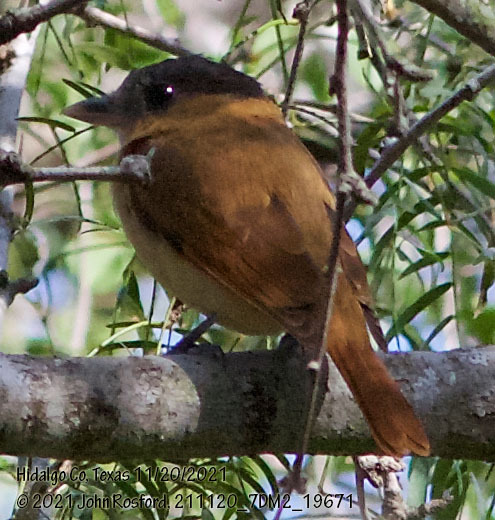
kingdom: Animalia
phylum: Chordata
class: Aves
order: Passeriformes
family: Cotingidae
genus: Pachyramphus
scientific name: Pachyramphus aglaiae
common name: Rose-throated becard
